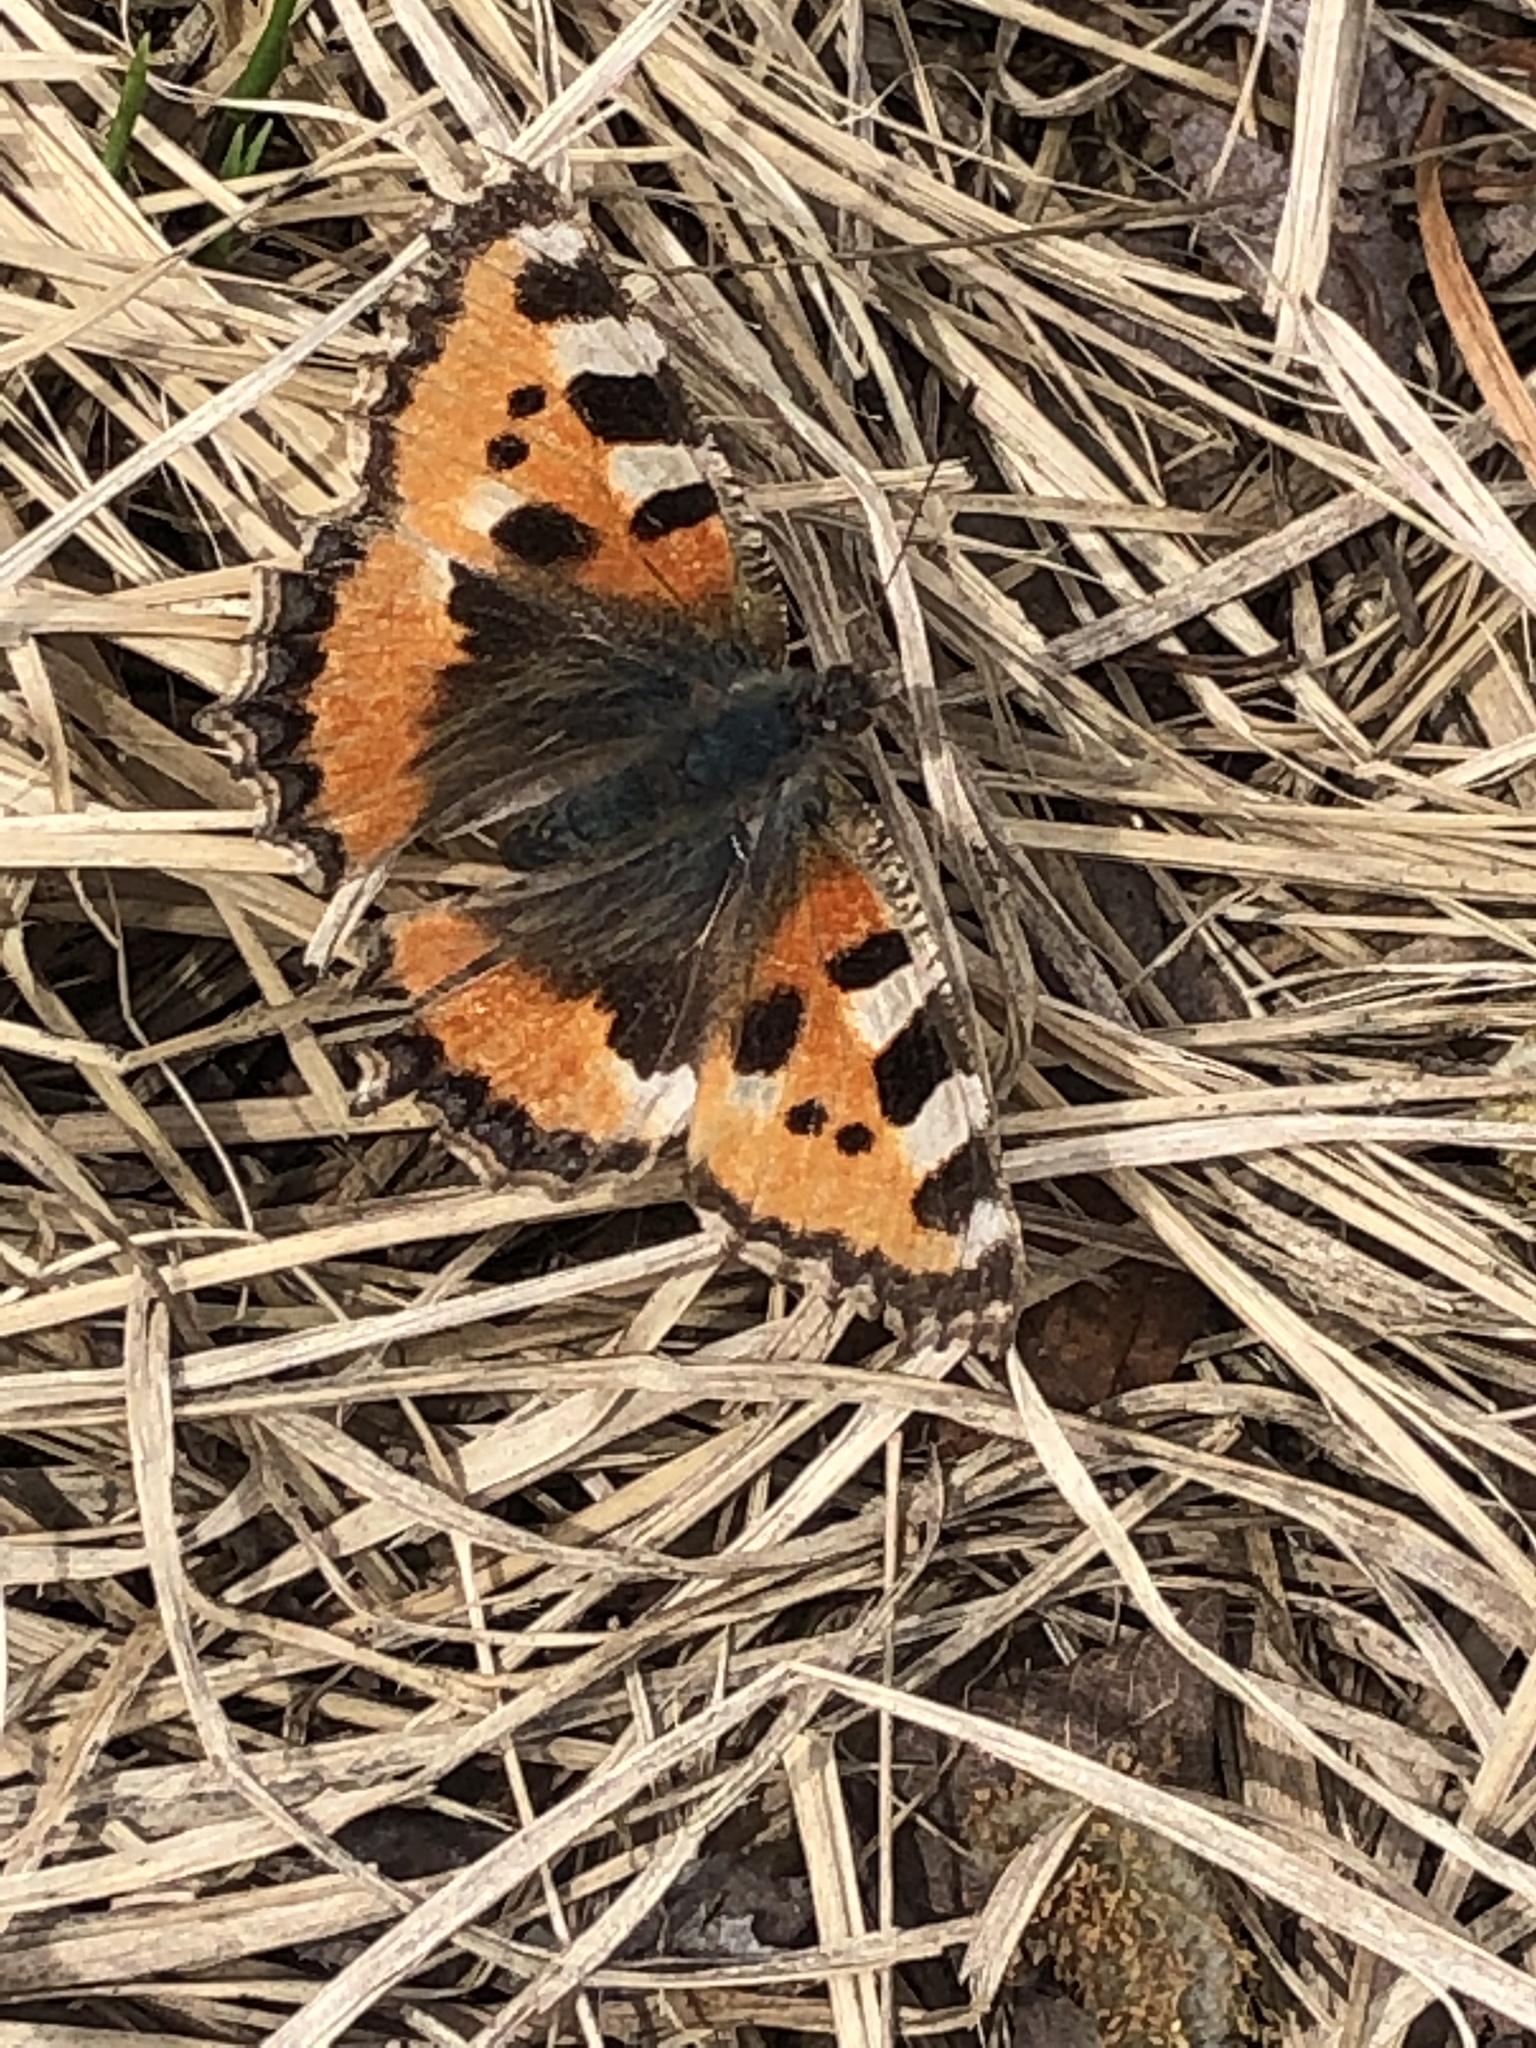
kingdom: Animalia
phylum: Arthropoda
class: Insecta
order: Lepidoptera
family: Nymphalidae
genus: Aglais
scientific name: Aglais urticae
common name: Small tortoiseshell
